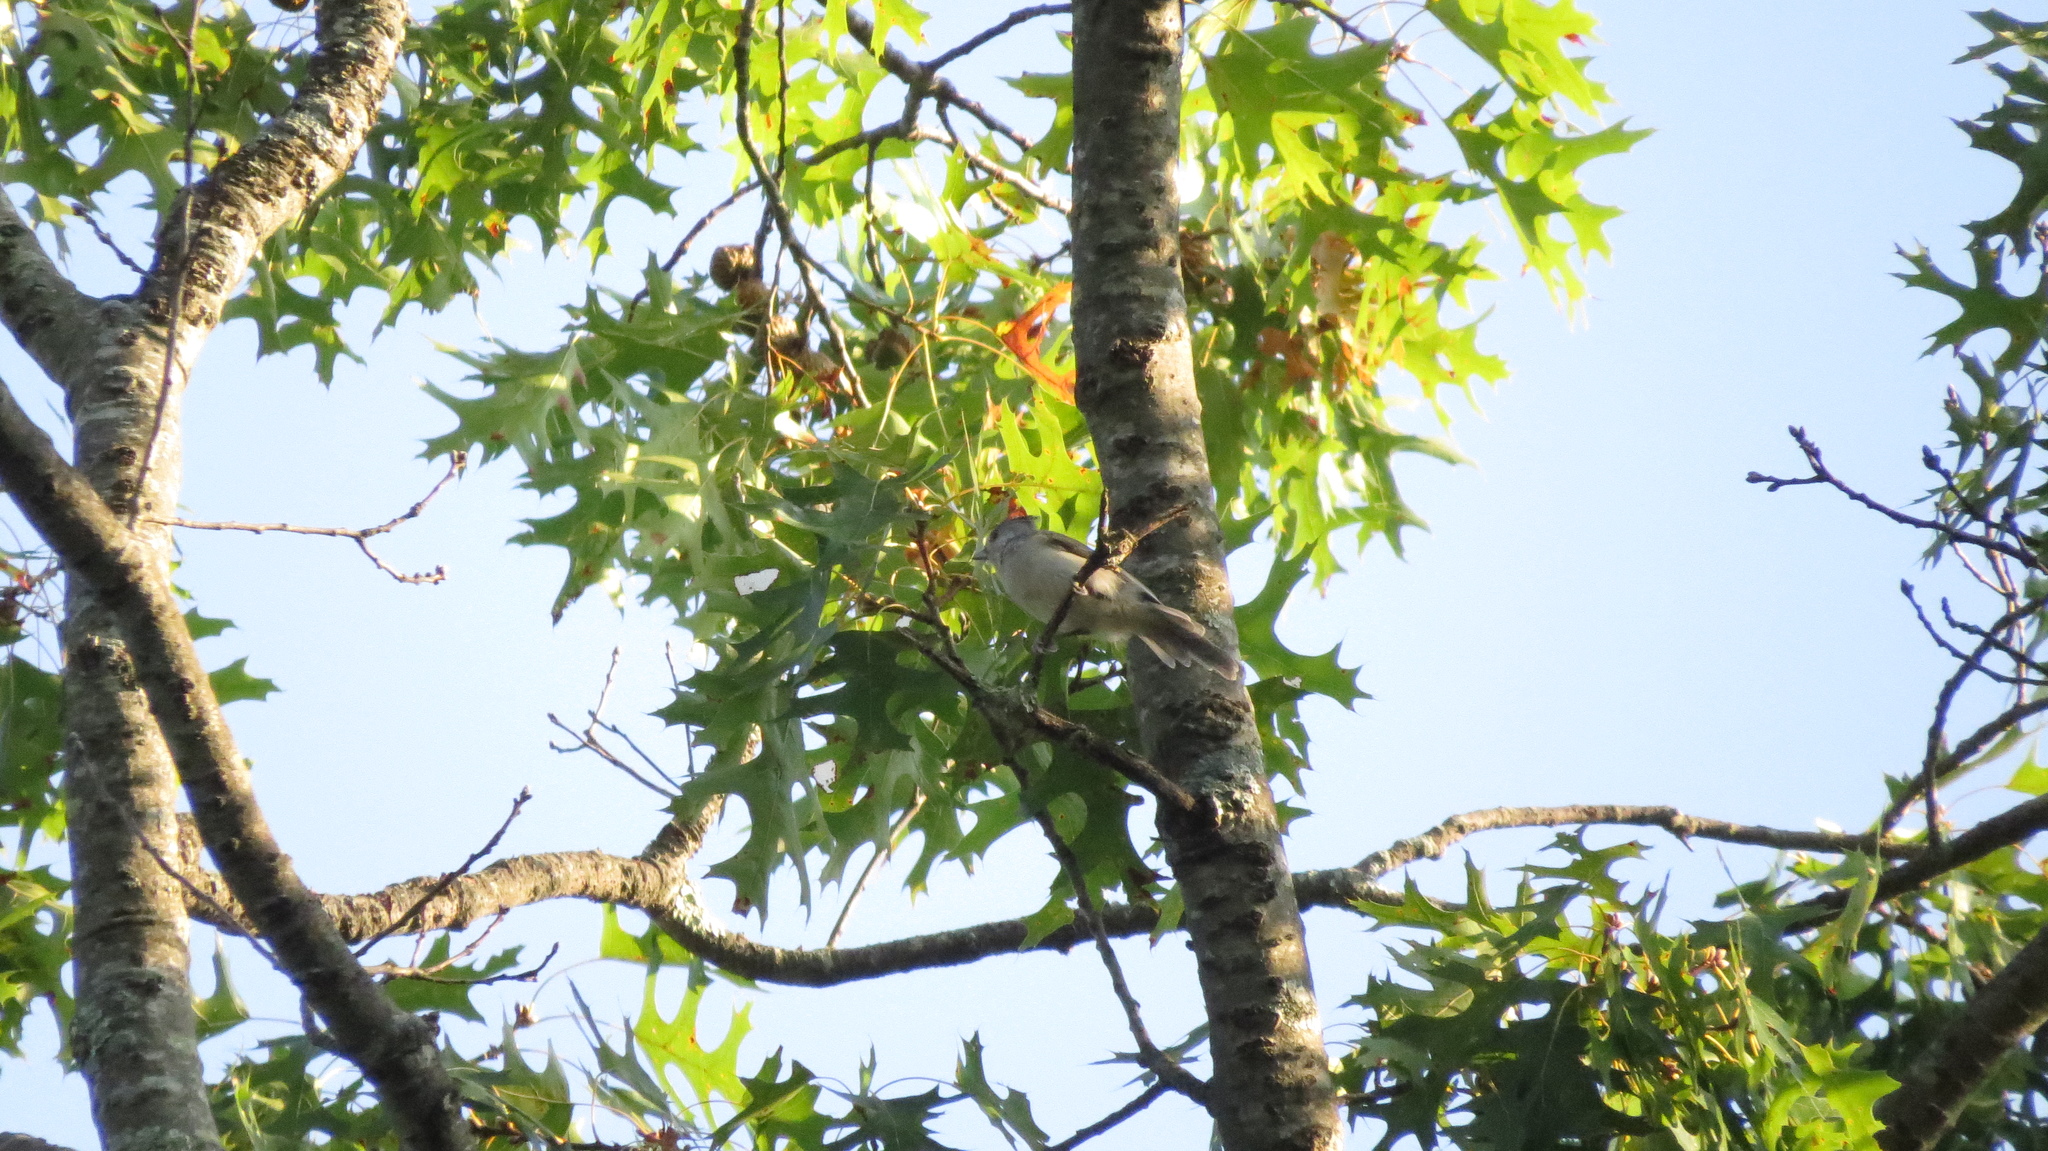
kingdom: Animalia
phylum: Chordata
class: Aves
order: Passeriformes
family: Paridae
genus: Baeolophus
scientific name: Baeolophus bicolor
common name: Tufted titmouse
